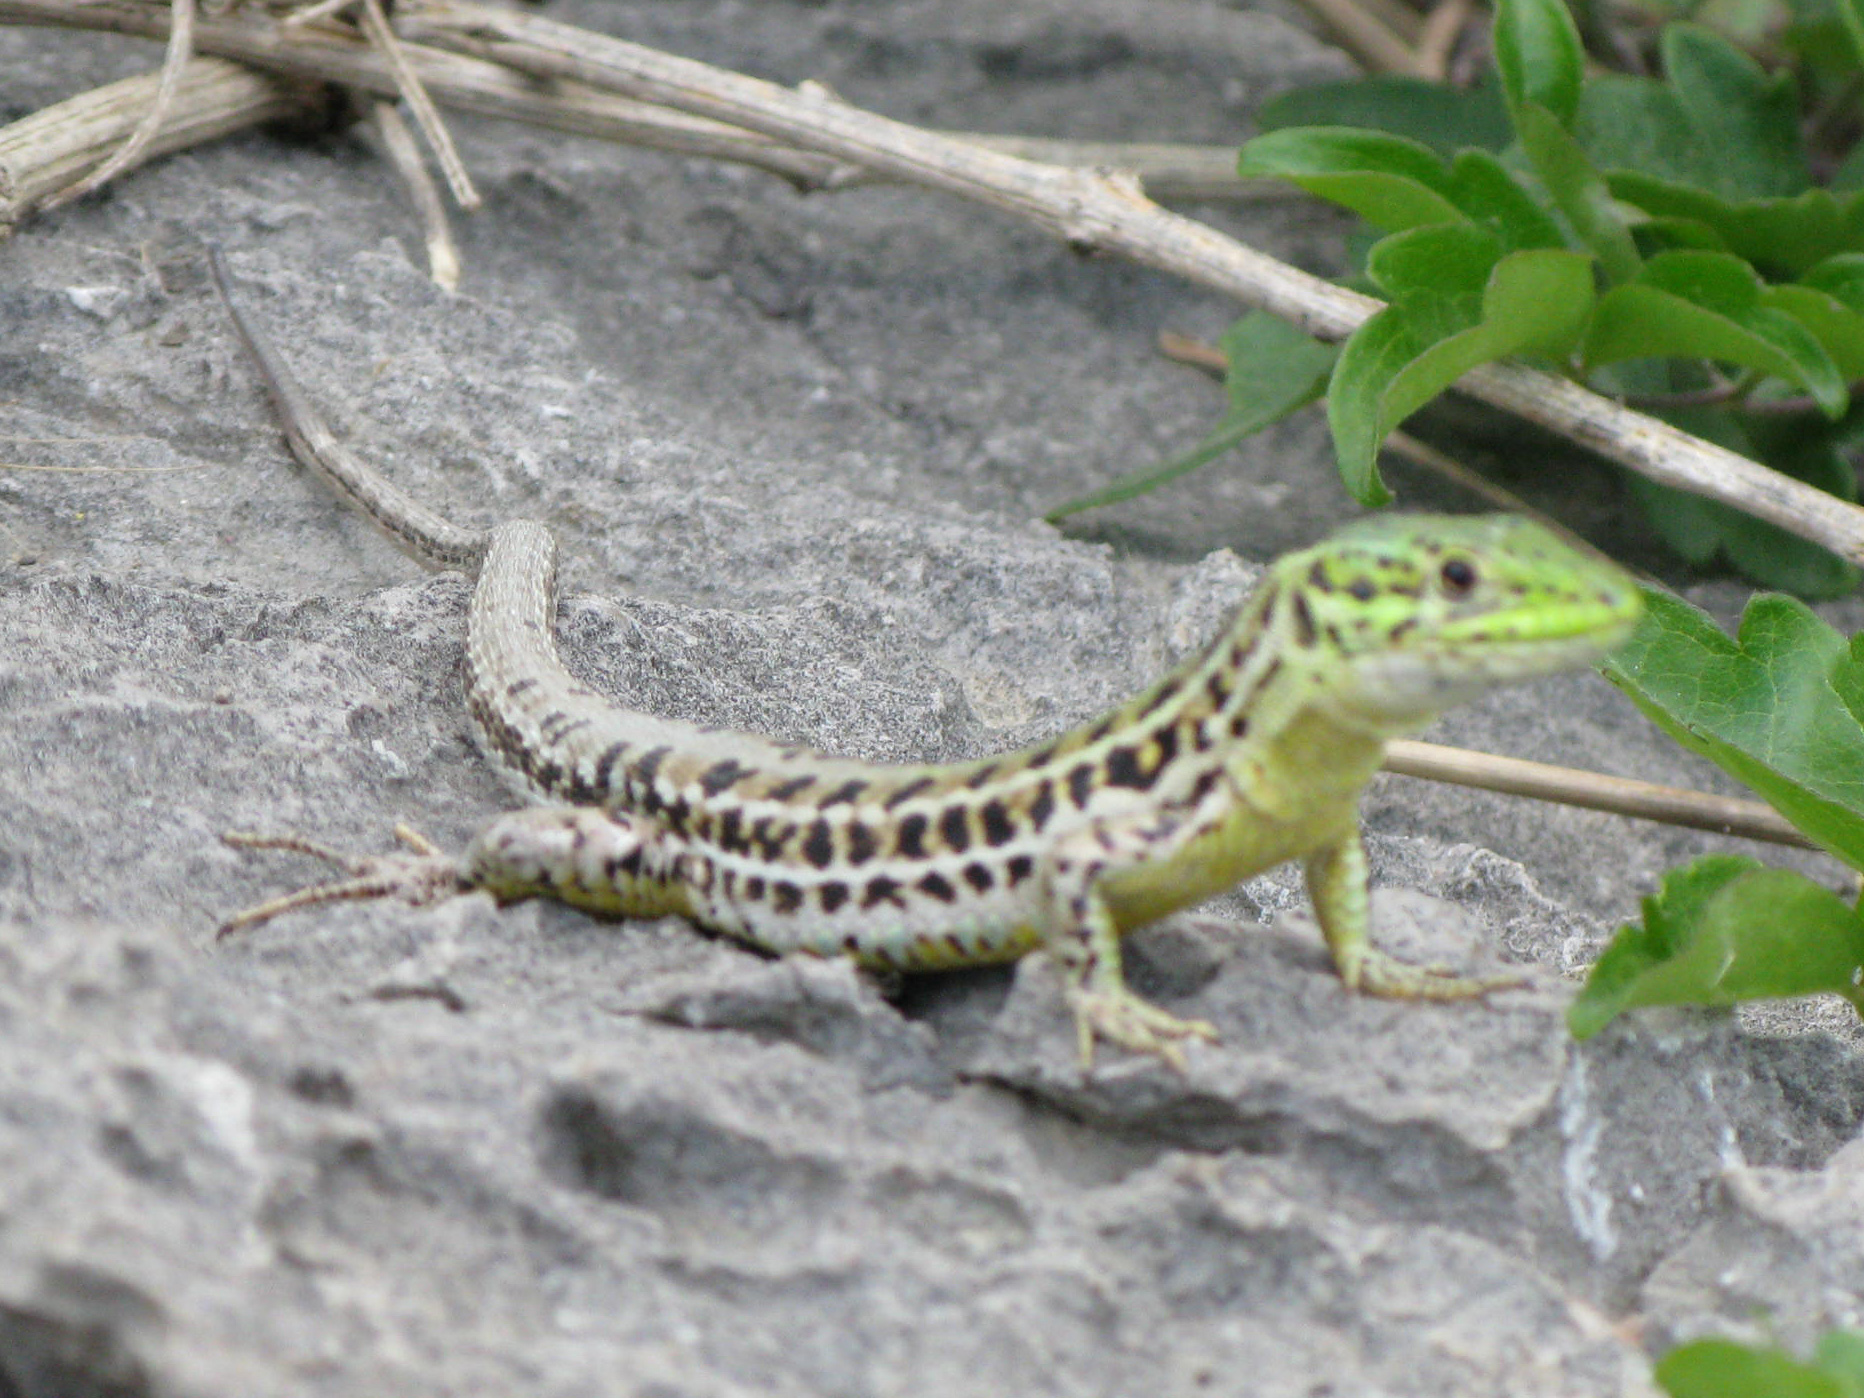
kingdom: Animalia
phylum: Chordata
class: Squamata
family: Lacertidae
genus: Podarcis
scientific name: Podarcis tauricus
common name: Balkan wall lizard
